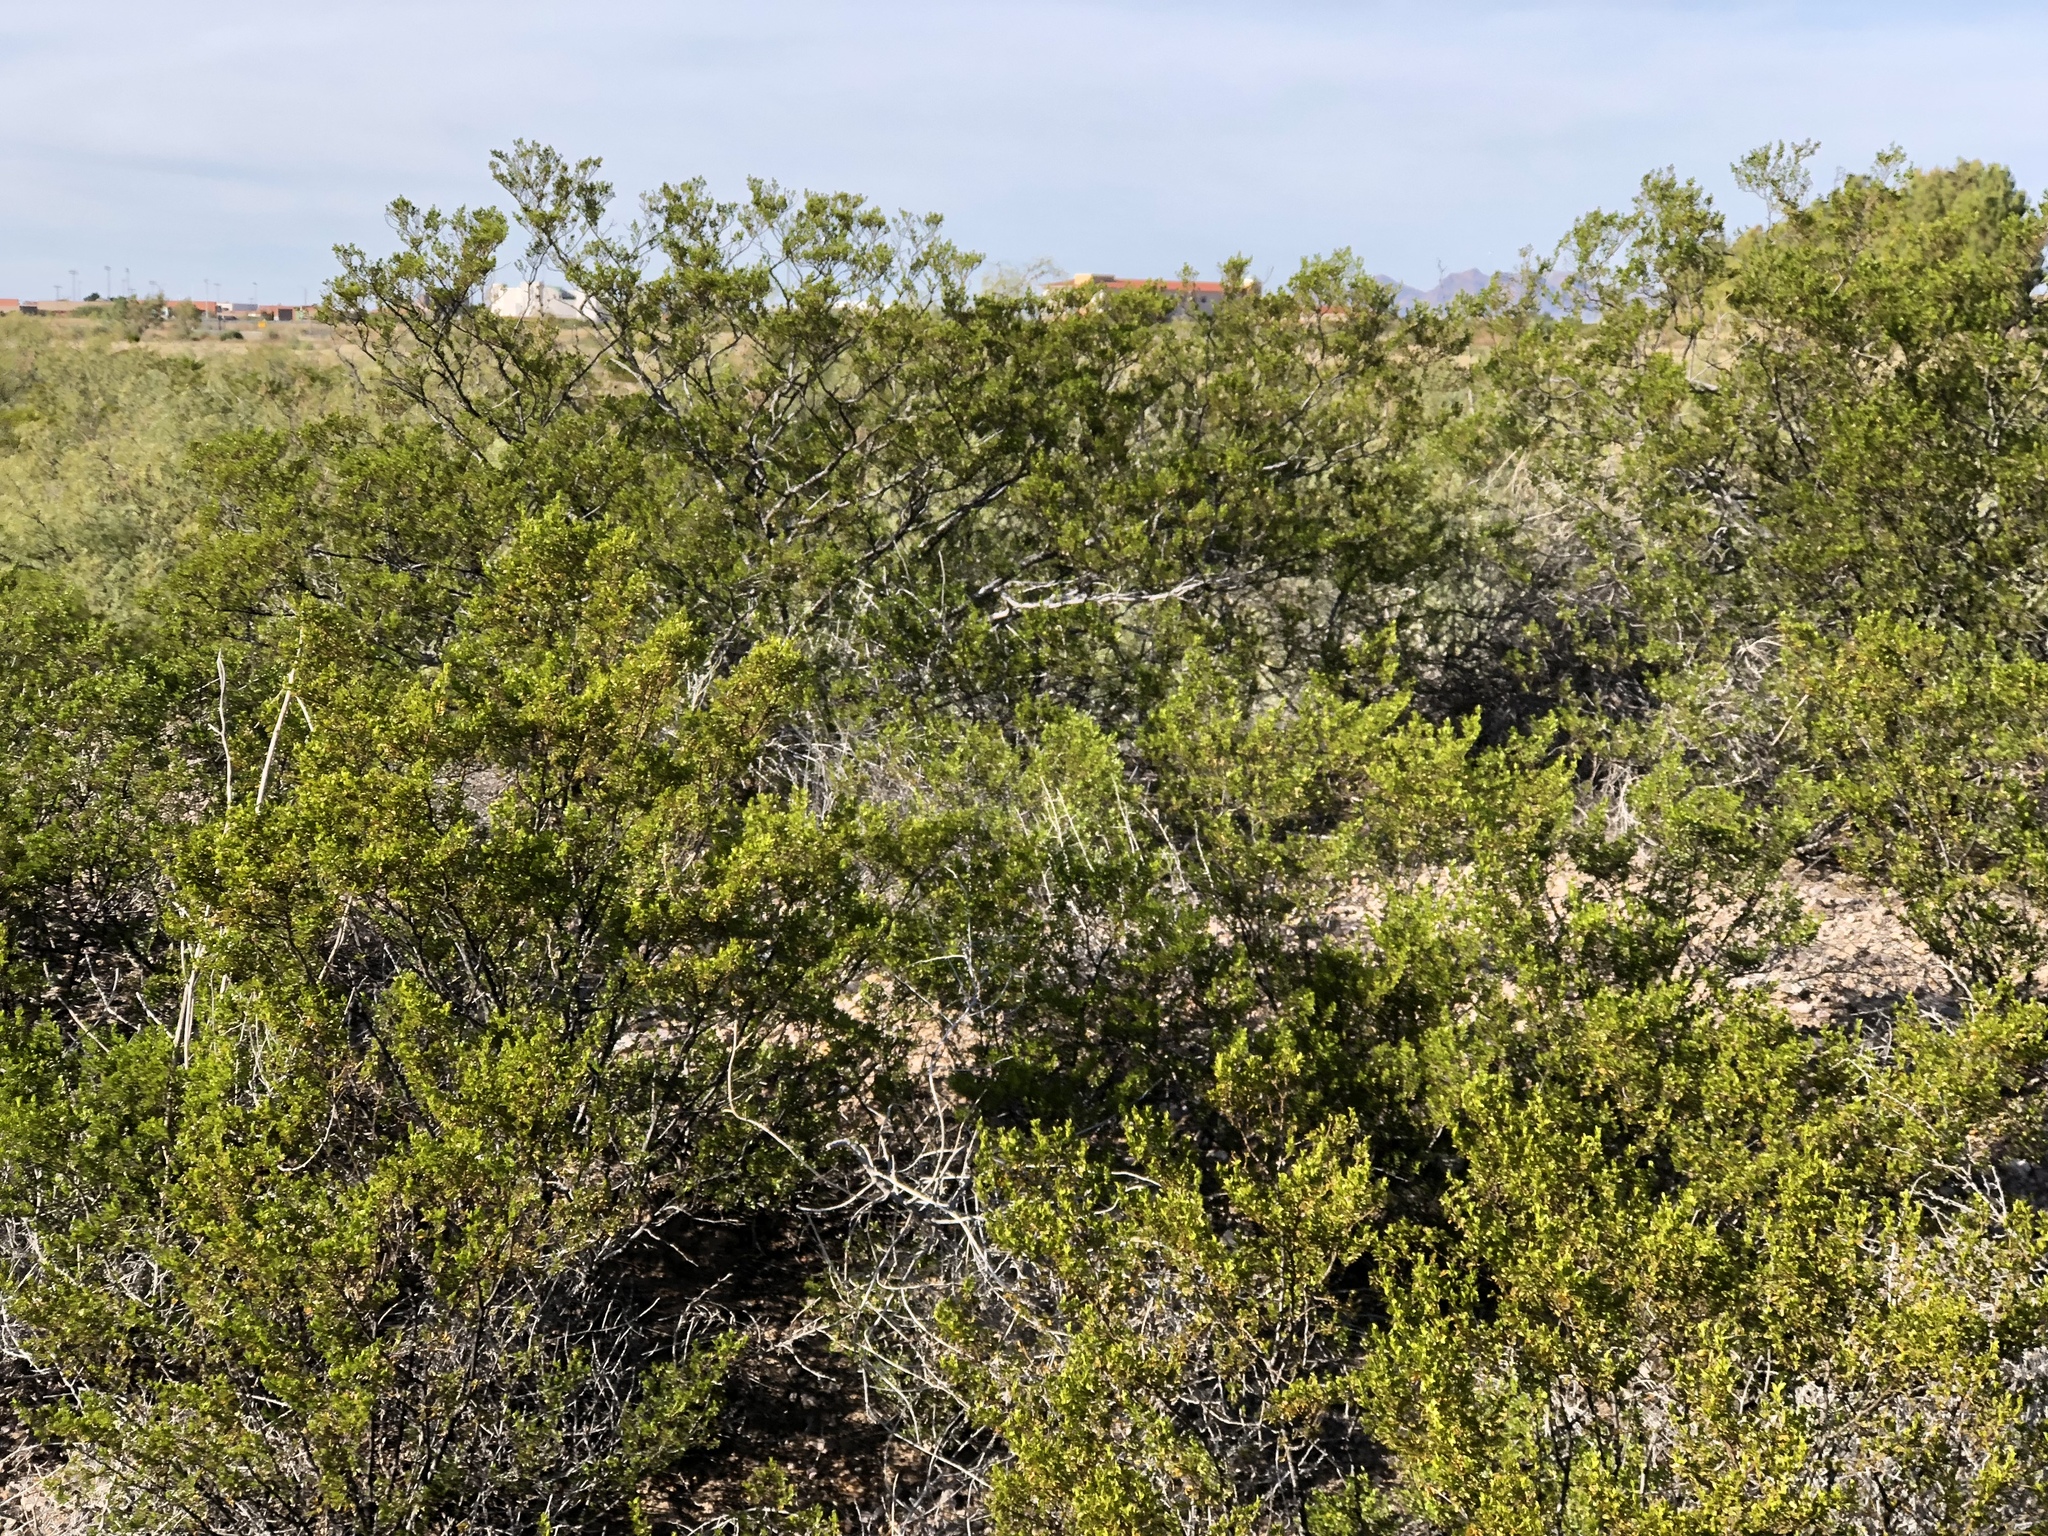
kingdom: Plantae
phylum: Tracheophyta
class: Magnoliopsida
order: Zygophyllales
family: Zygophyllaceae
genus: Larrea
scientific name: Larrea tridentata
